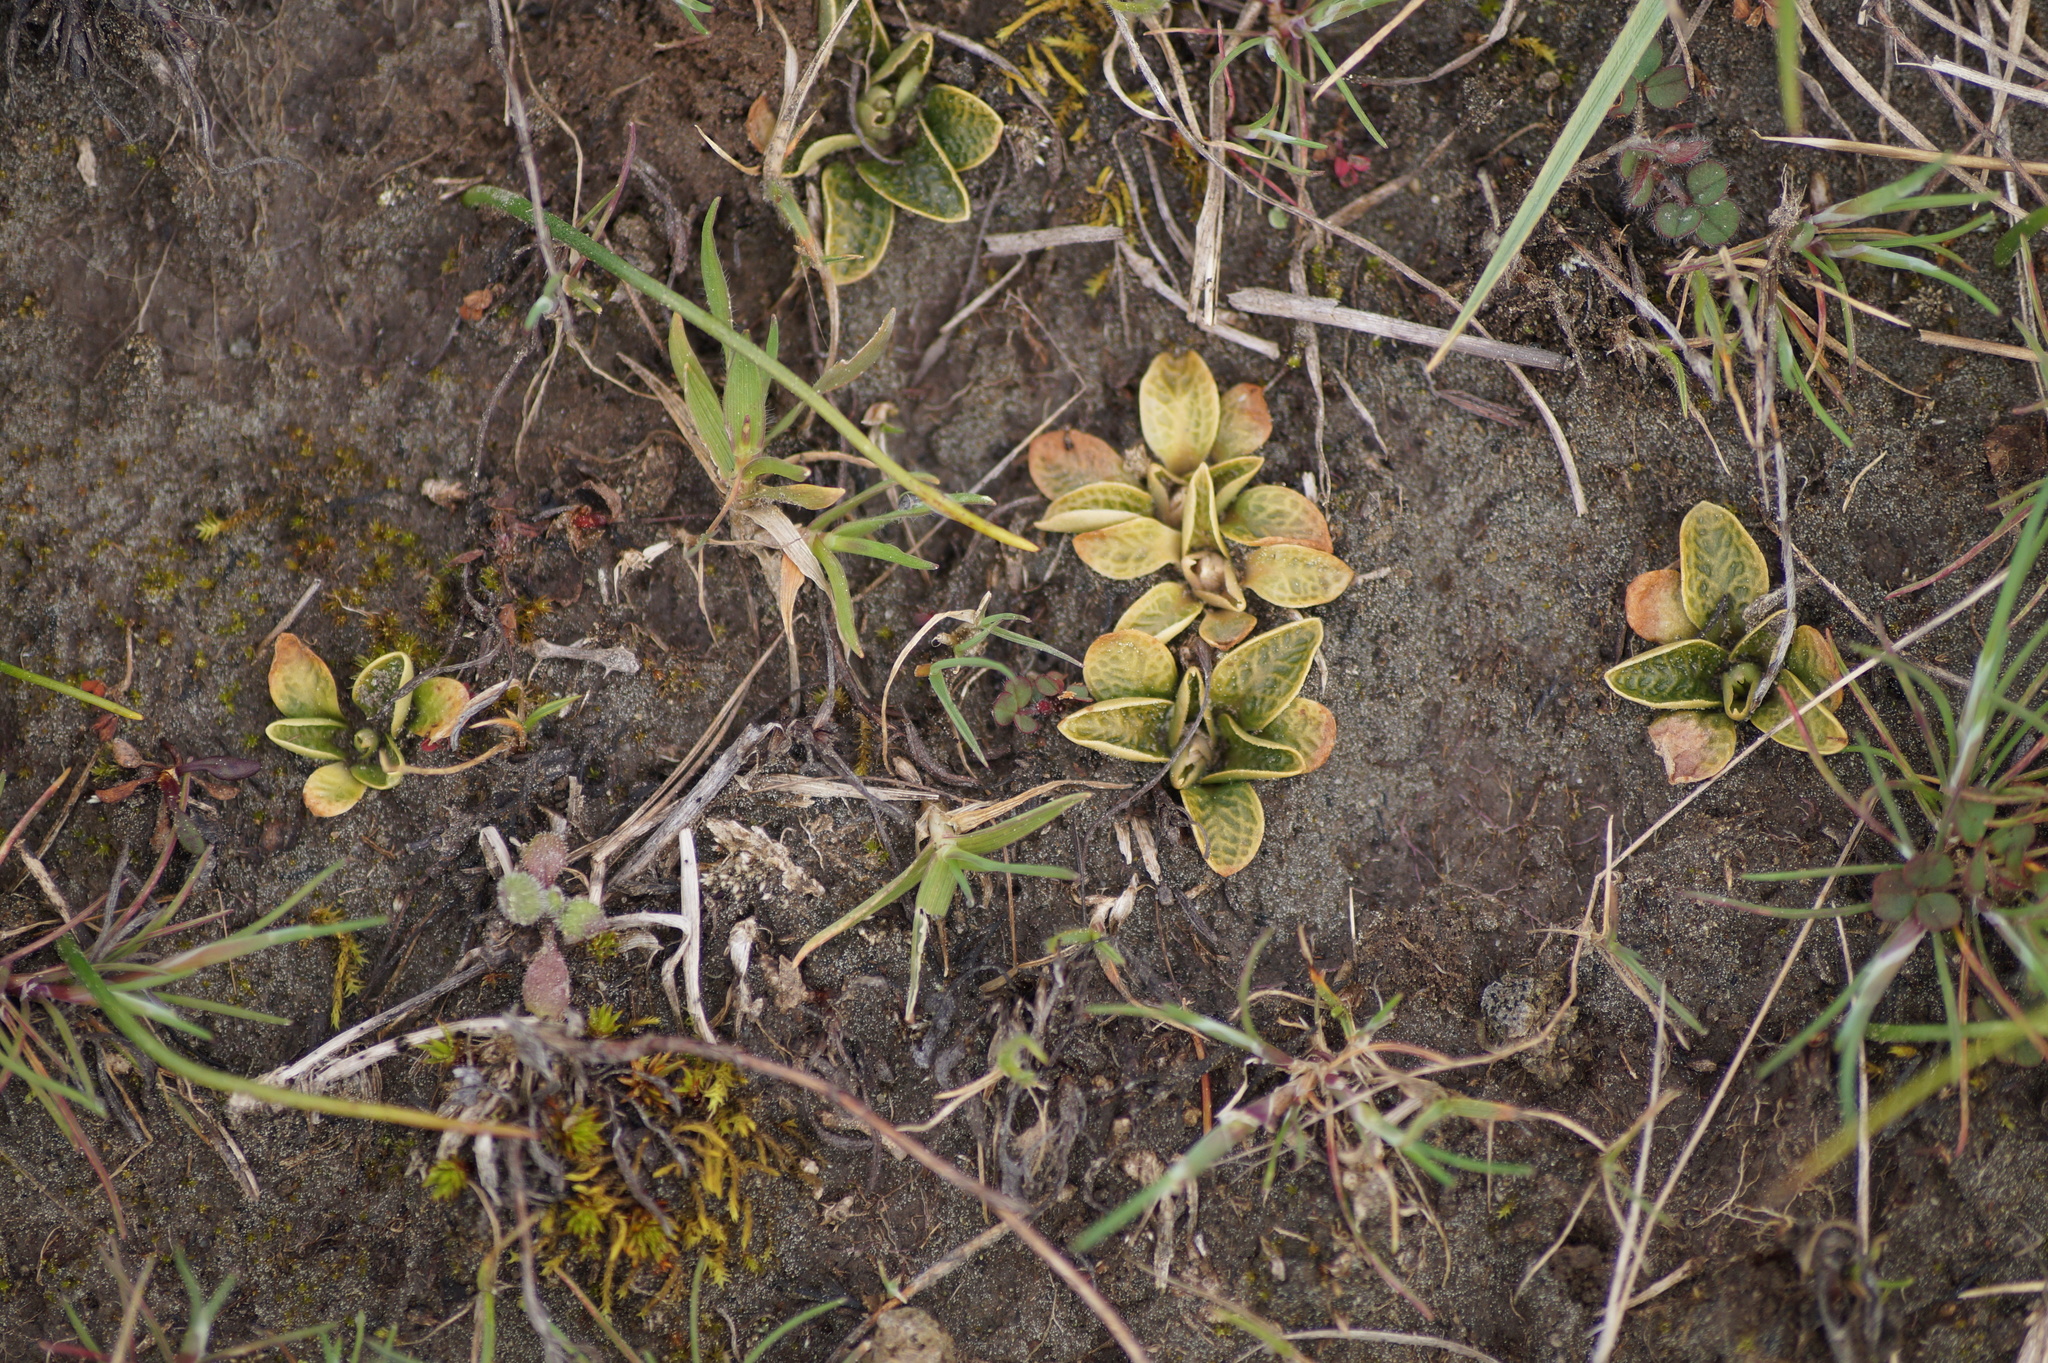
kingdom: Plantae
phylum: Tracheophyta
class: Liliopsida
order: Asparagales
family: Orchidaceae
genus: Pterostylis
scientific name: Pterostylis tristis
